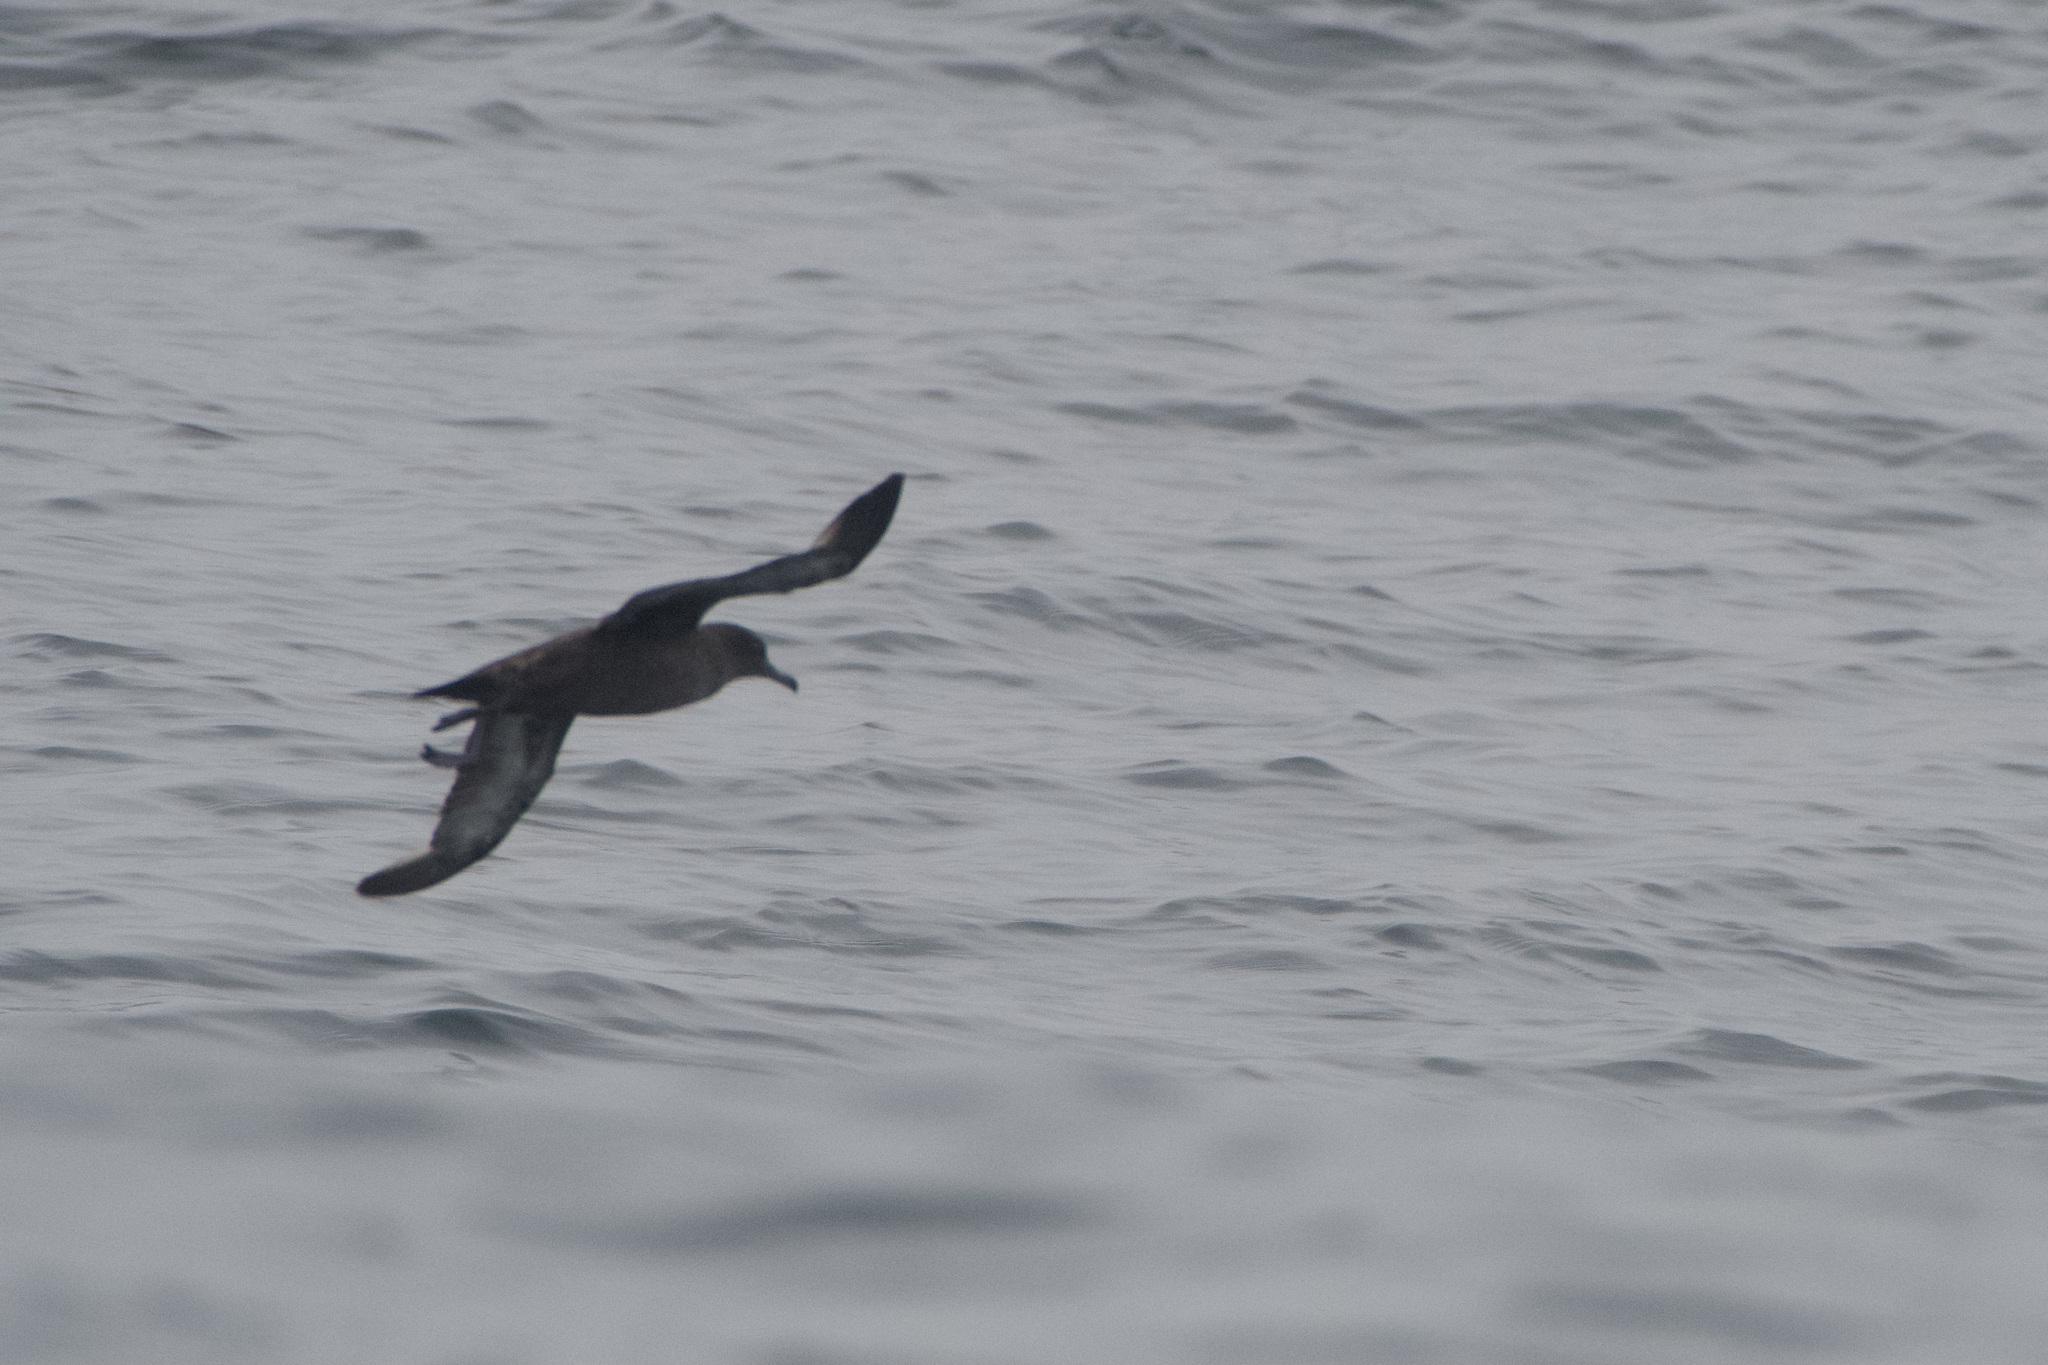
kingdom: Animalia
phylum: Chordata
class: Aves
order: Procellariiformes
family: Procellariidae
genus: Puffinus
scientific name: Puffinus griseus
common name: Sooty shearwater
